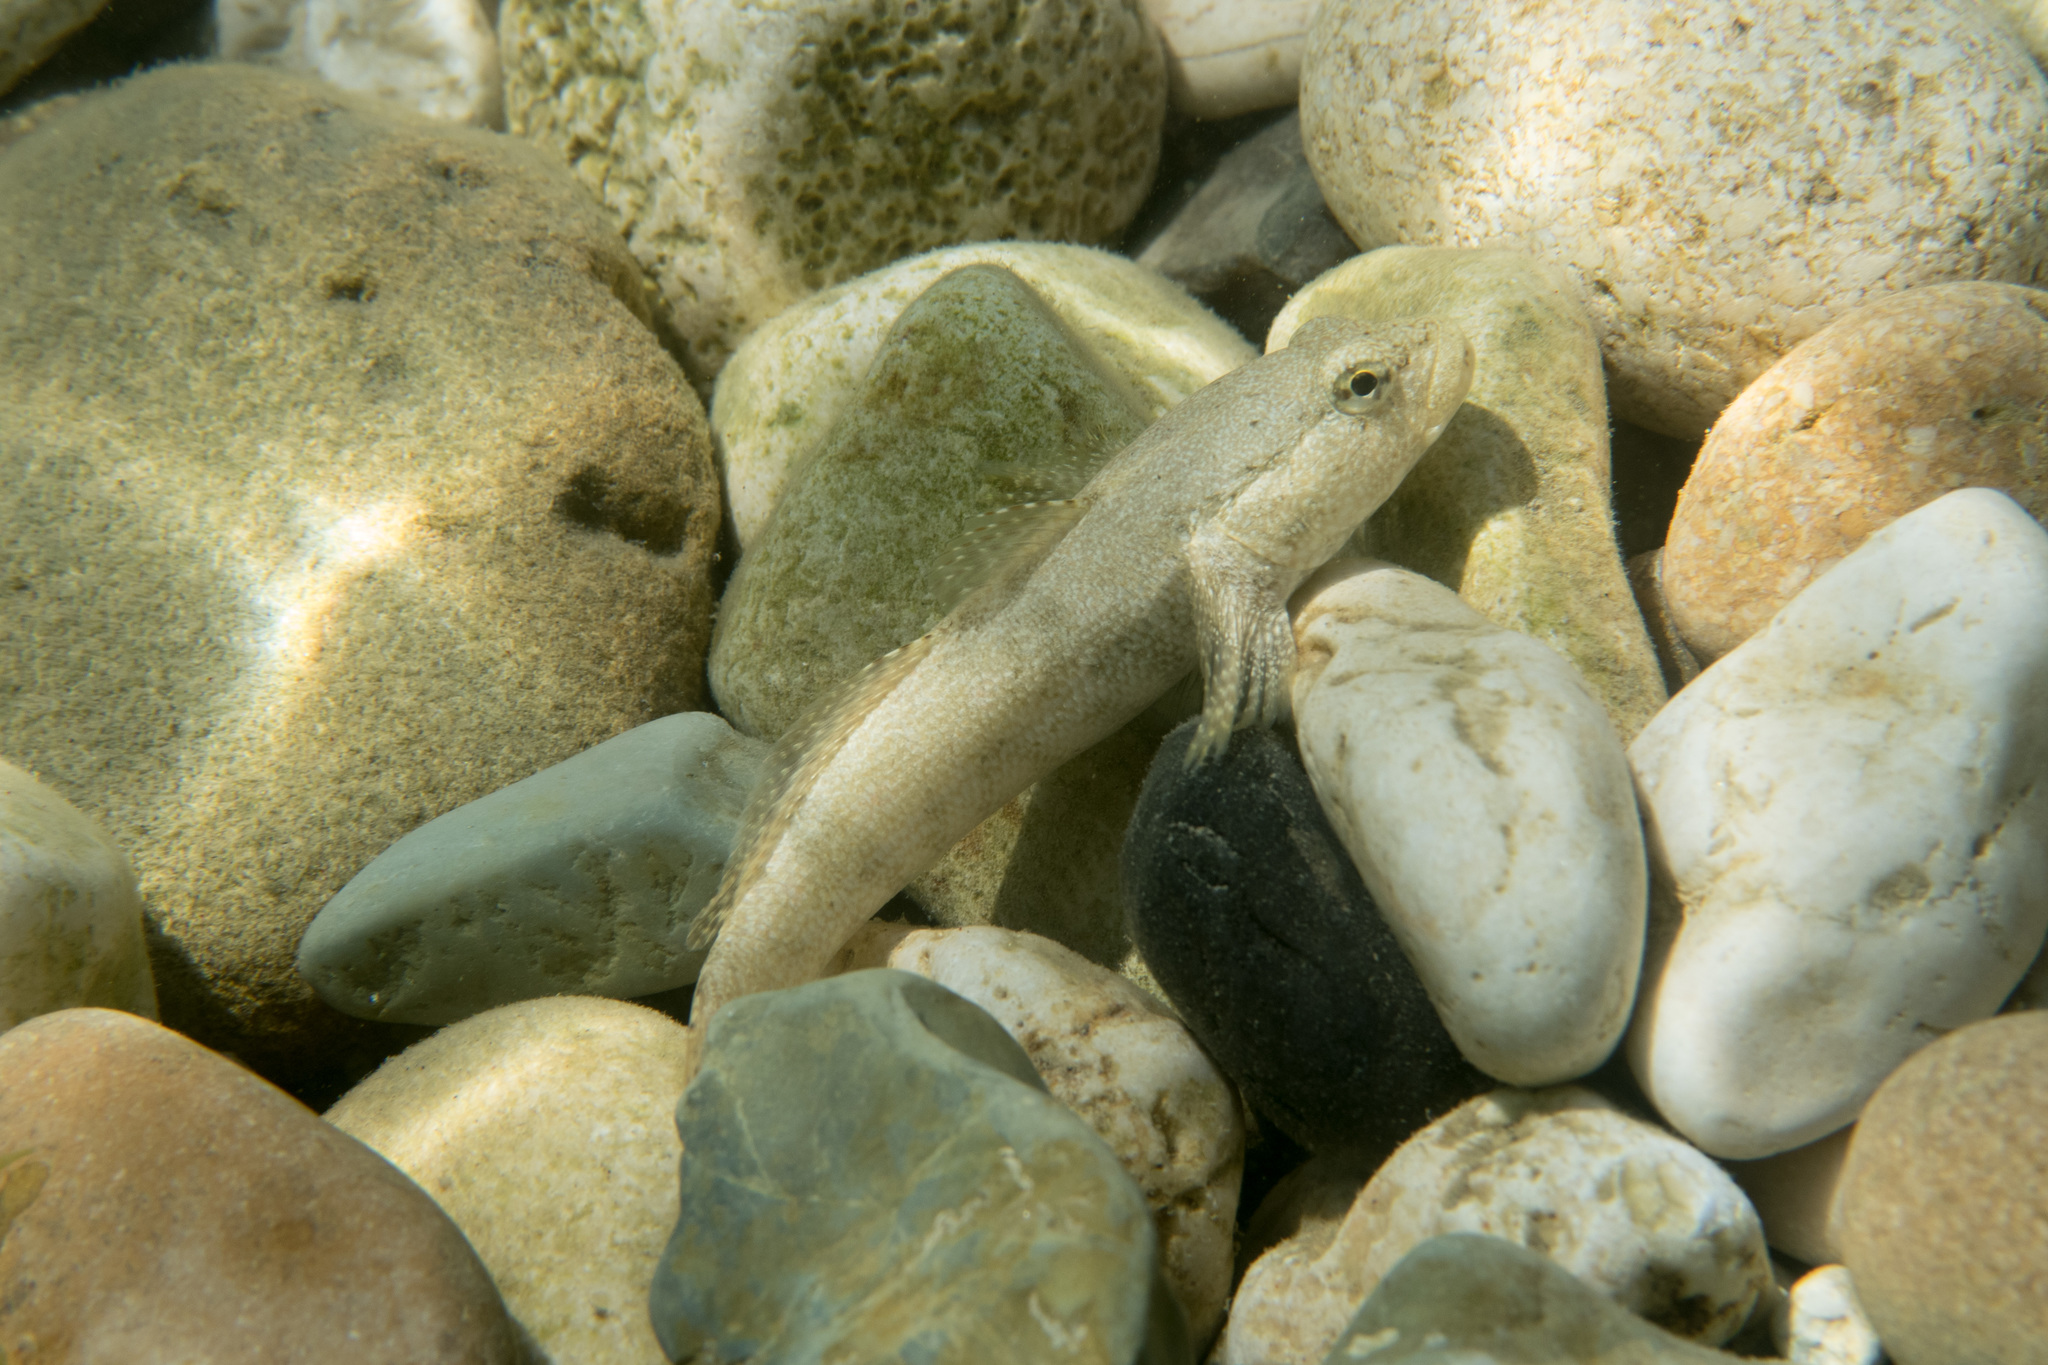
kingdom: Animalia
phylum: Chordata
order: Perciformes
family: Gobiidae
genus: Gobius
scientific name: Gobius cobitis
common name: Giant goby
